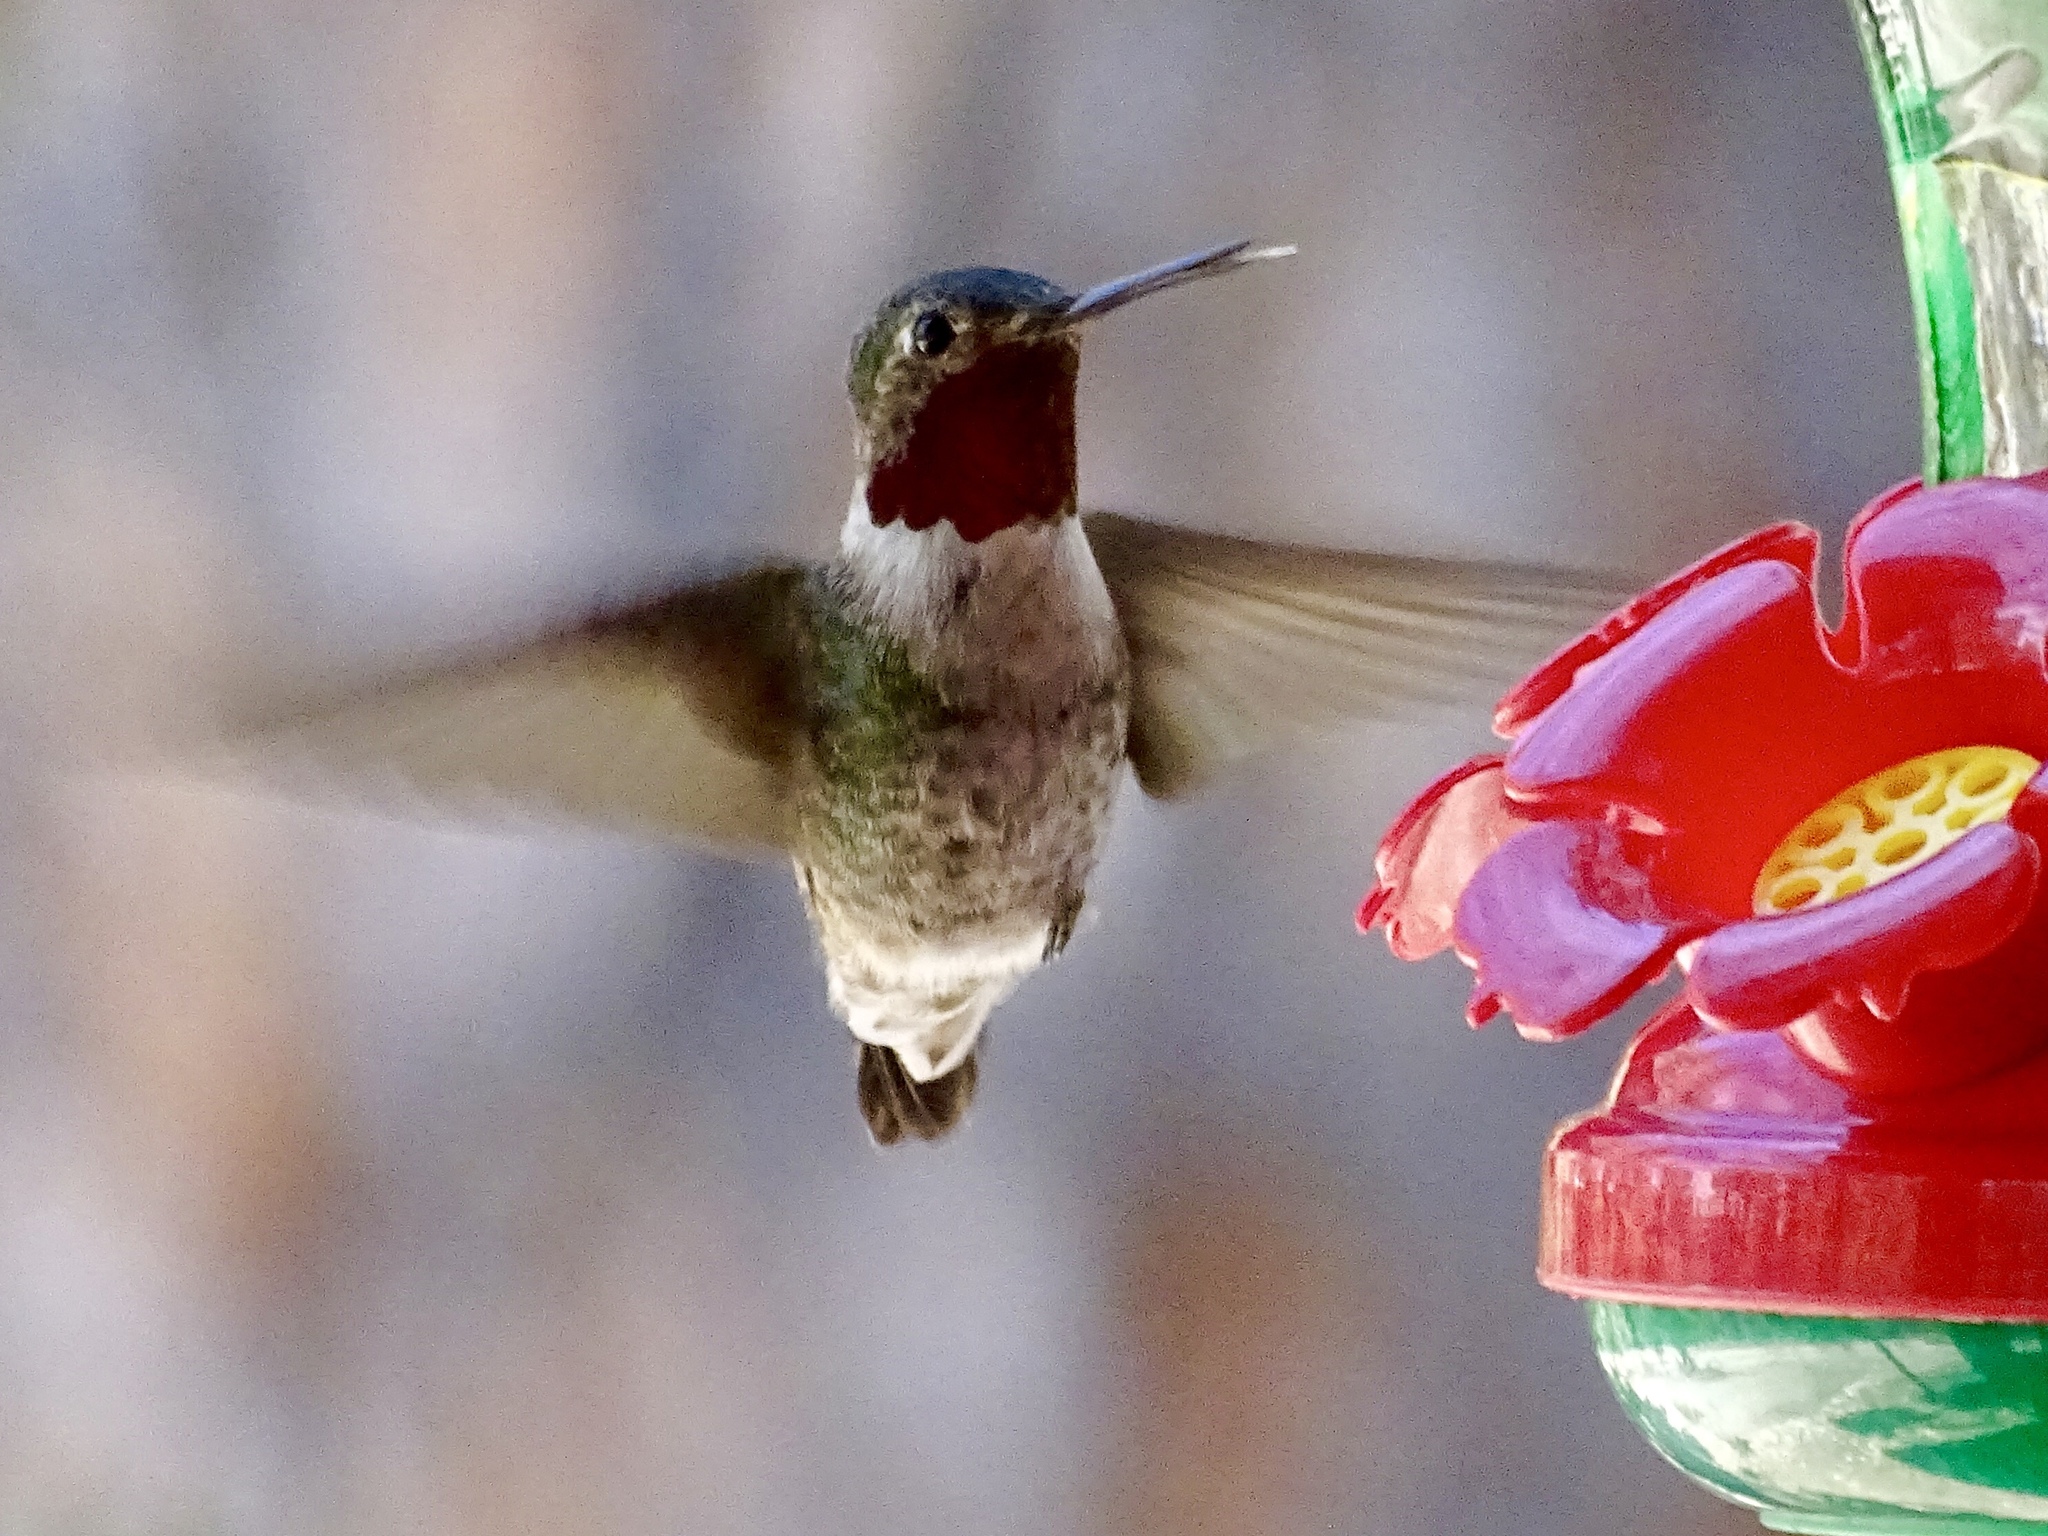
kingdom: Animalia
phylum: Chordata
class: Aves
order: Apodiformes
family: Trochilidae
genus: Selasphorus
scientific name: Selasphorus platycercus
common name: Broad-tailed hummingbird
